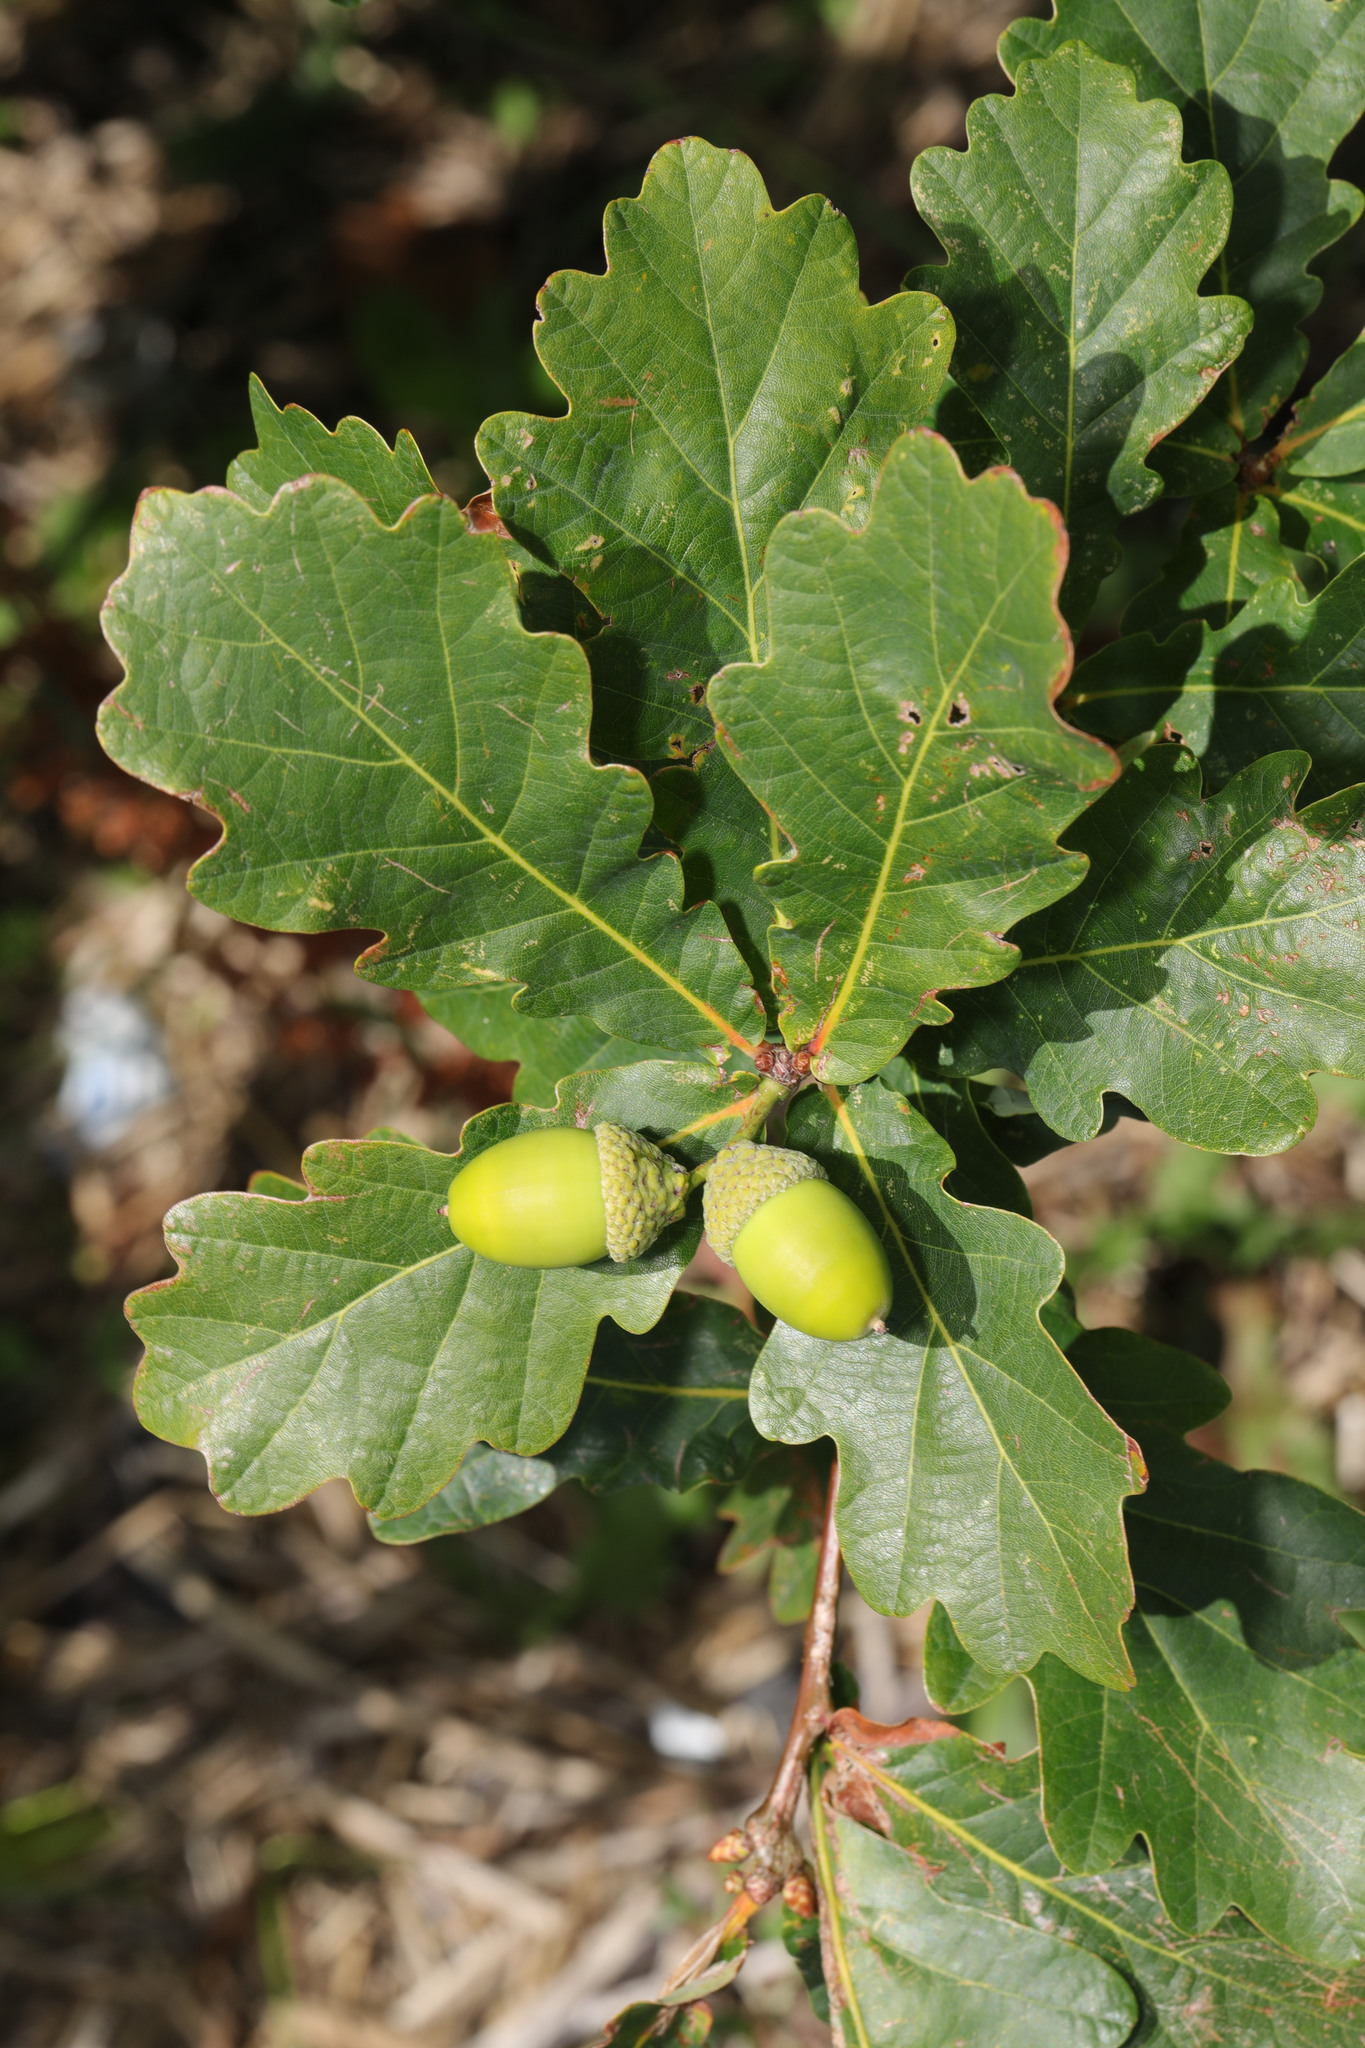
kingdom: Plantae
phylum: Tracheophyta
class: Magnoliopsida
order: Fagales
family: Fagaceae
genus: Quercus
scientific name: Quercus robur
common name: Pedunculate oak
